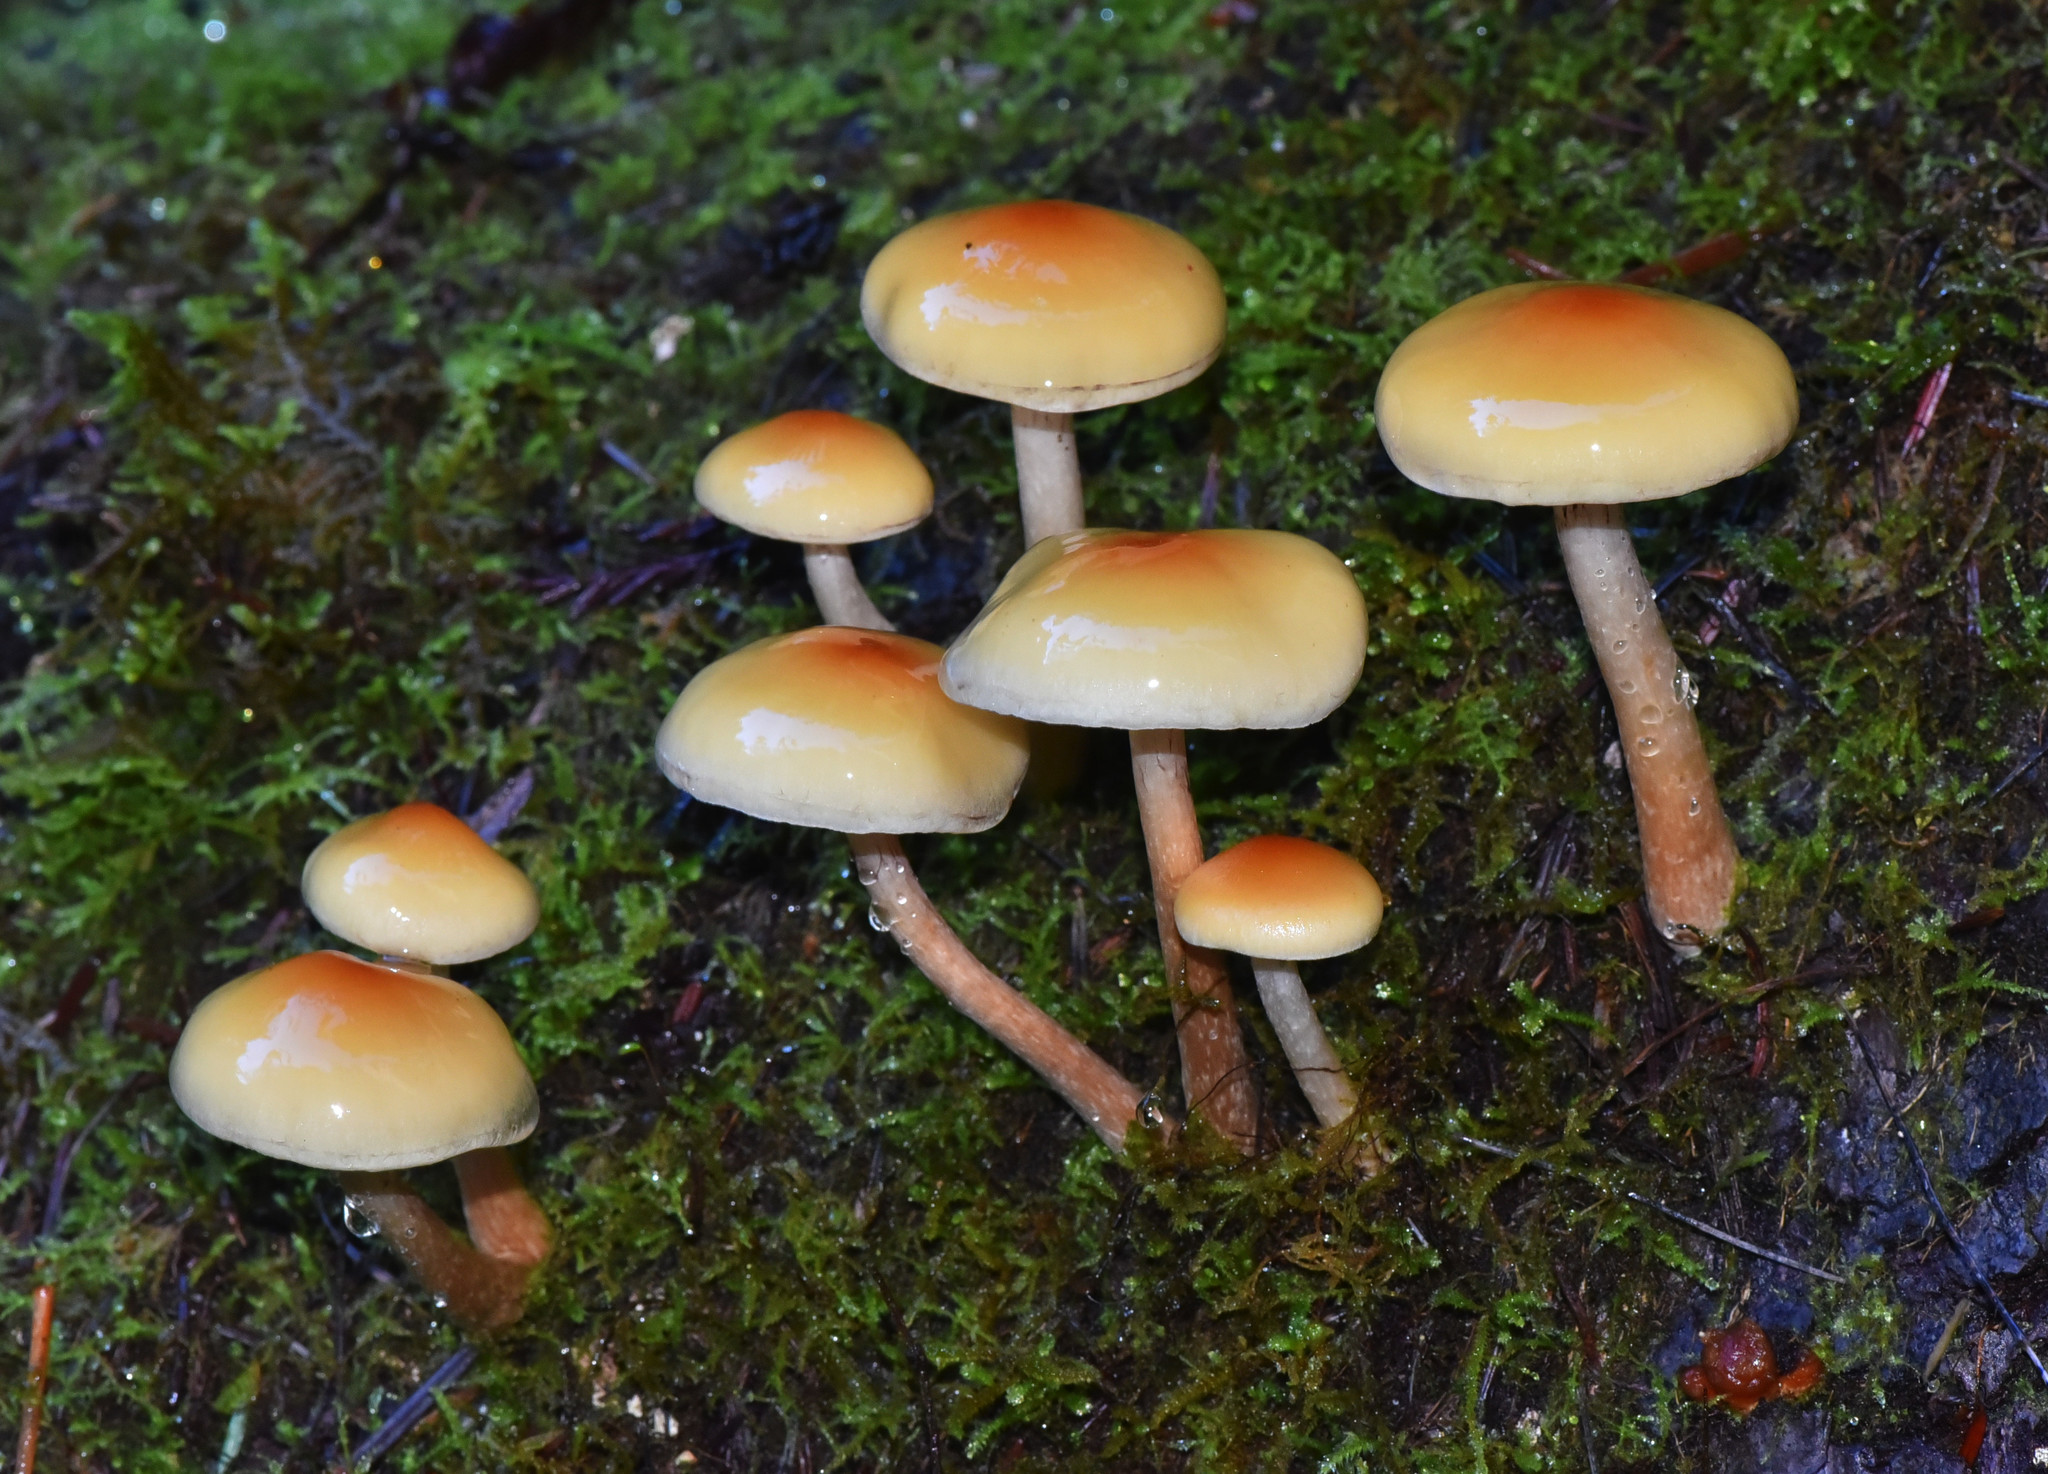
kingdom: Fungi
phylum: Basidiomycota
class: Agaricomycetes
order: Agaricales
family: Strophariaceae
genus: Hypholoma
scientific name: Hypholoma capnoides
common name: Conifer tuft
